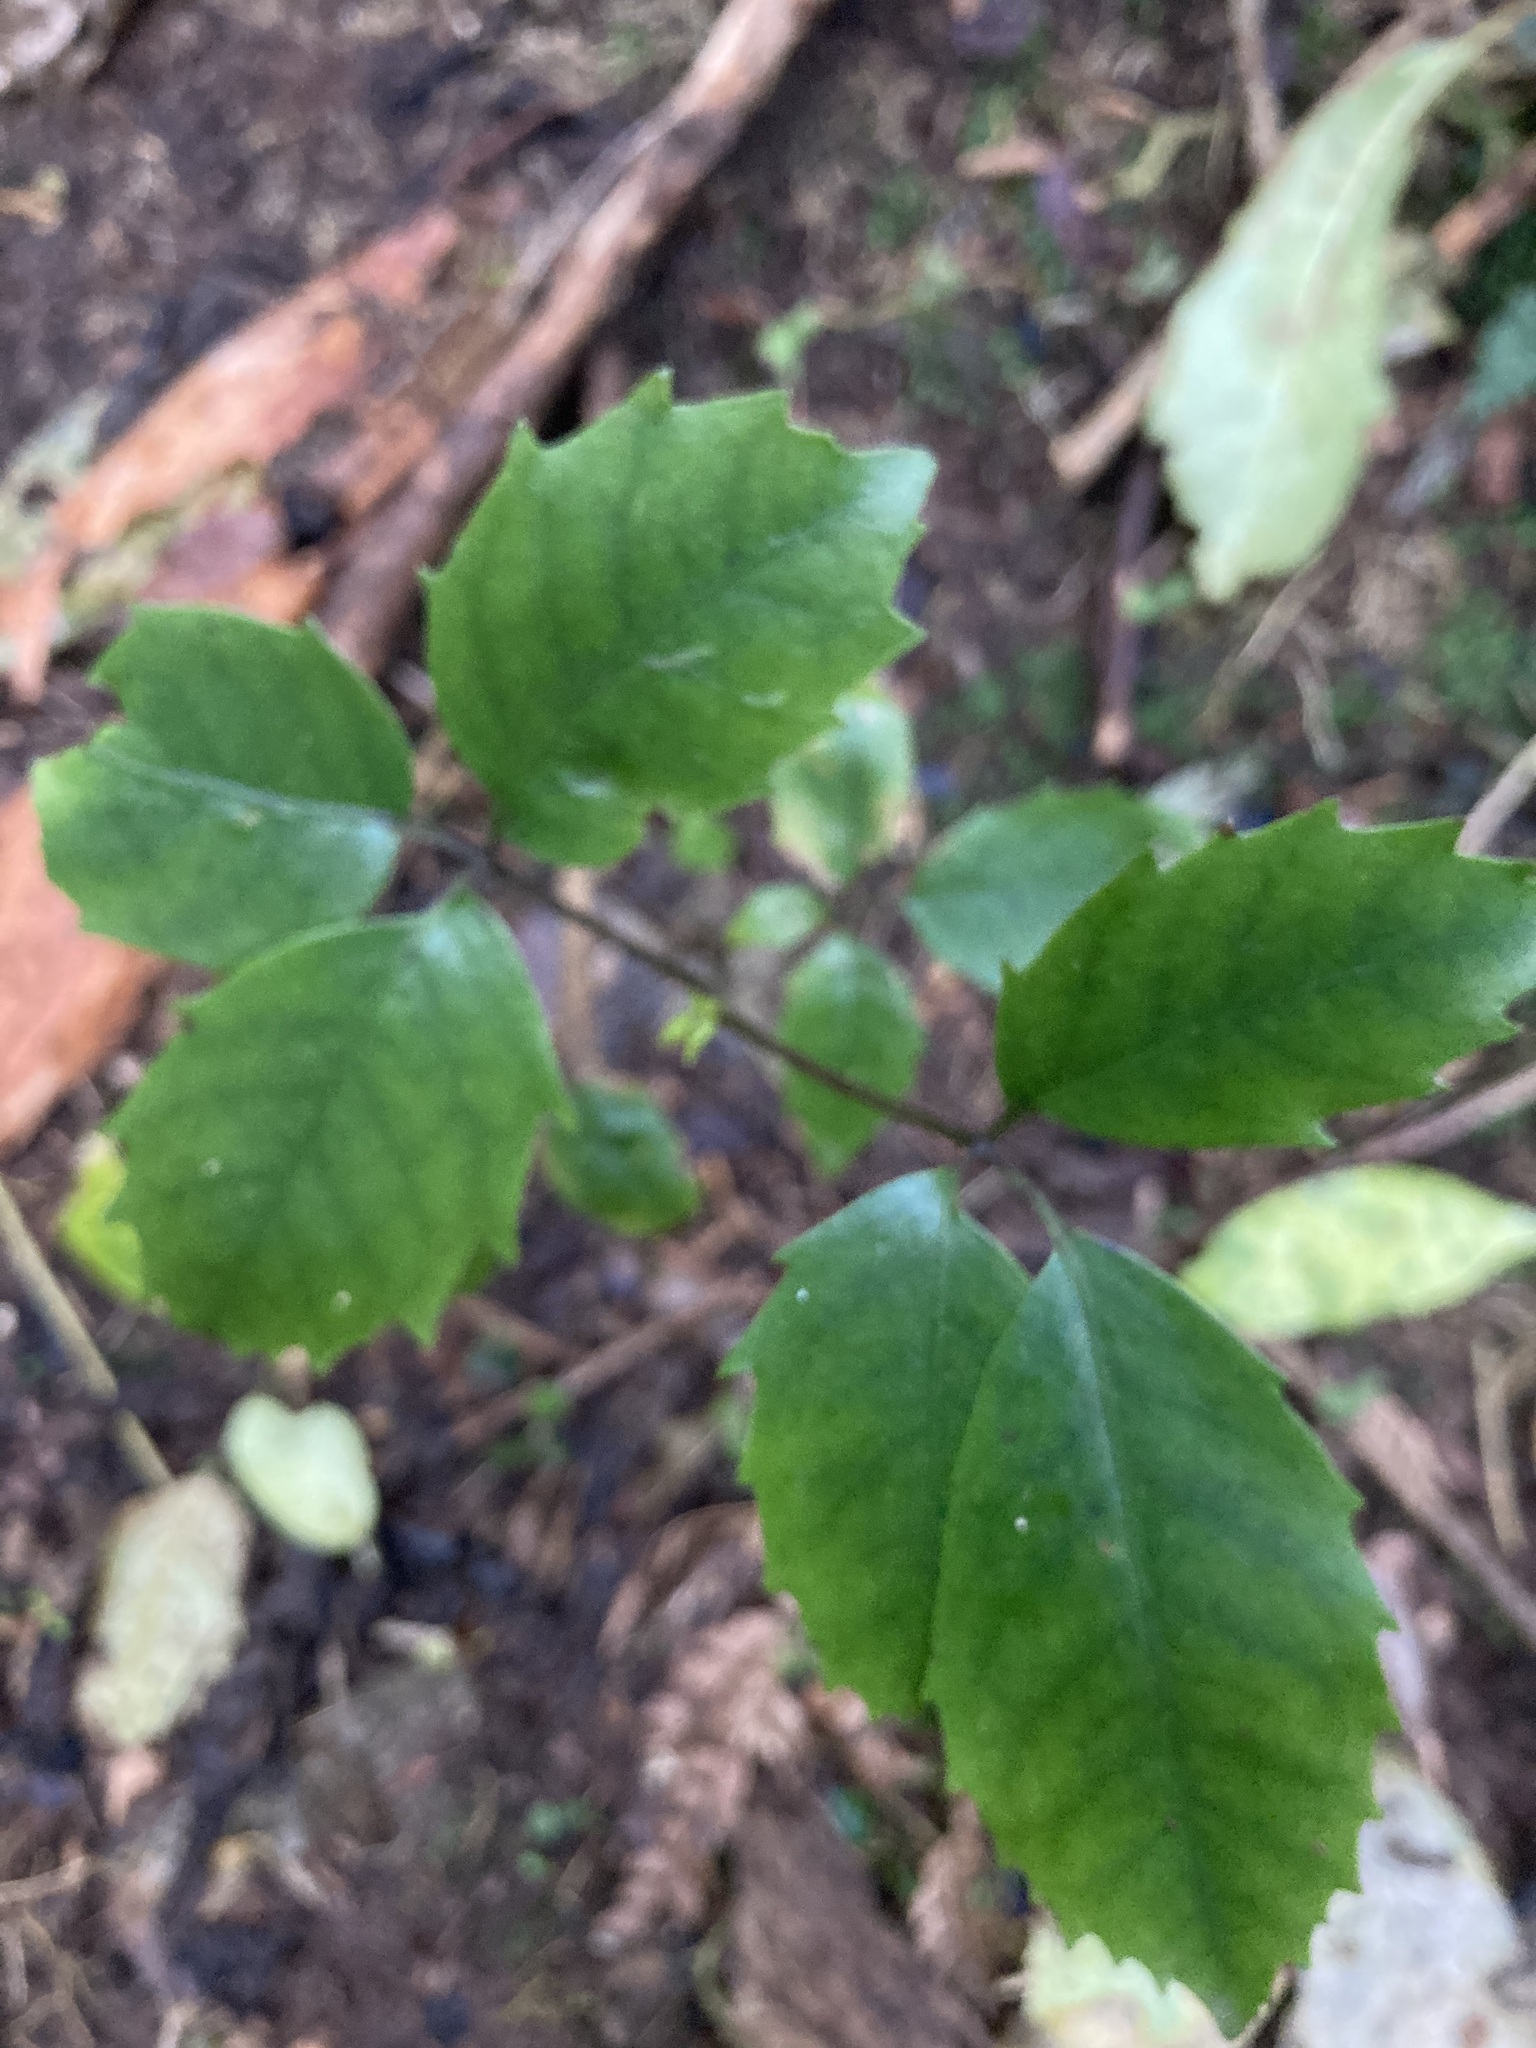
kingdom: Plantae
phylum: Tracheophyta
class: Magnoliopsida
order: Apiales
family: Araliaceae
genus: Neopanax
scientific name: Neopanax arboreus
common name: Five-fingers
